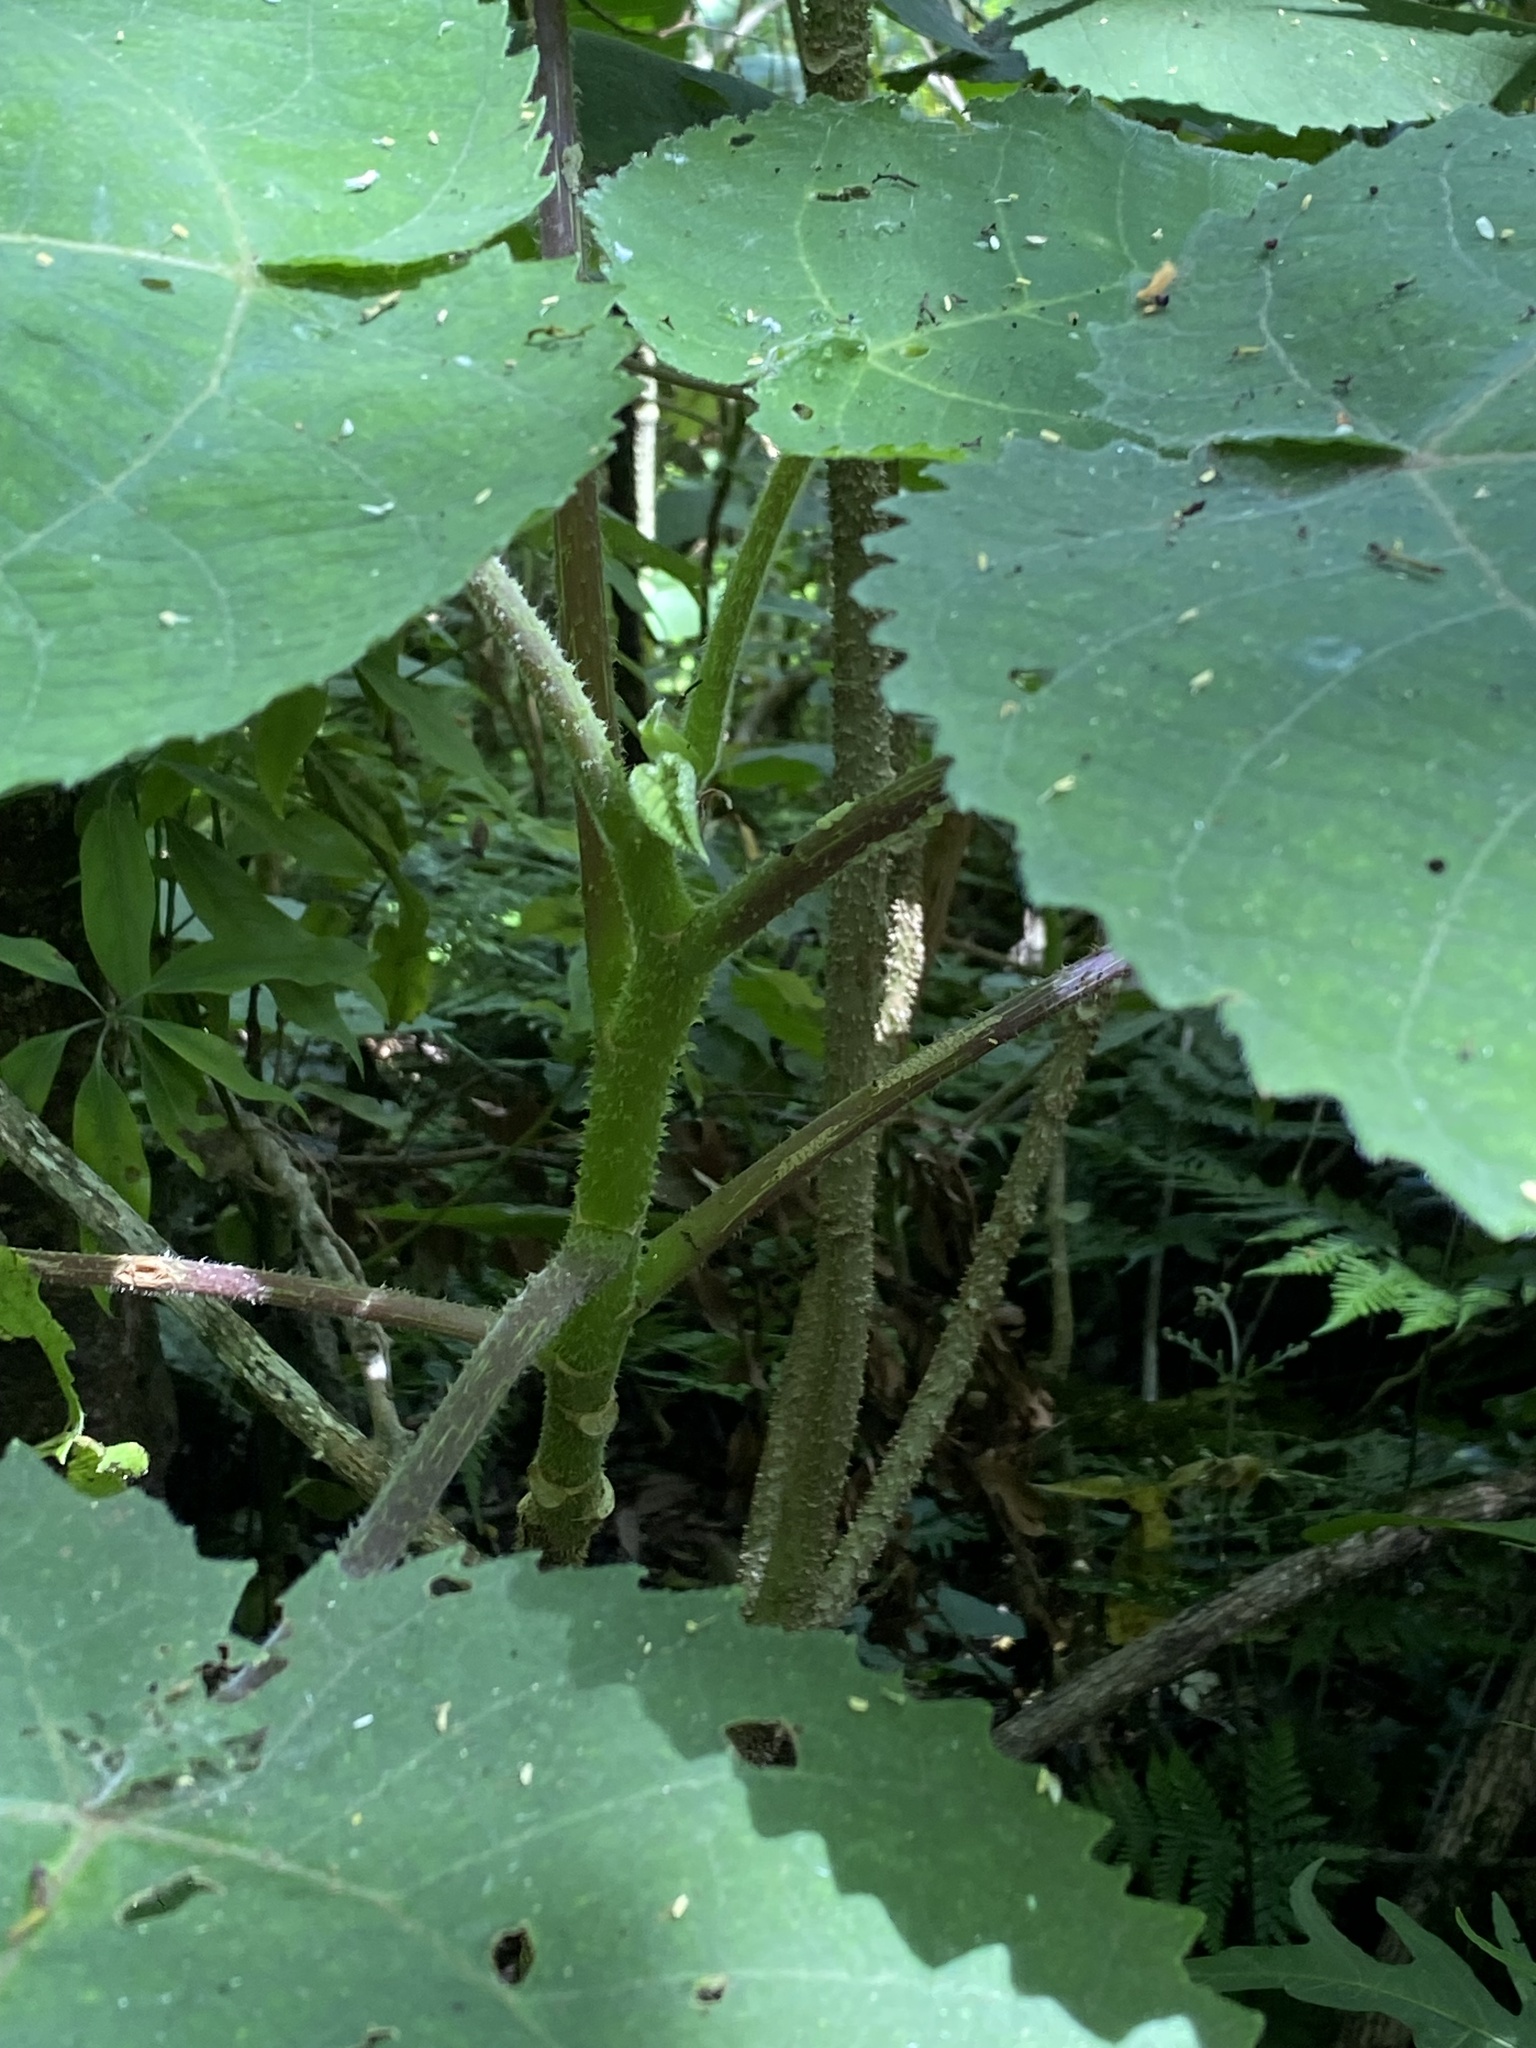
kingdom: Plantae
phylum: Tracheophyta
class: Magnoliopsida
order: Rosales
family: Urticaceae
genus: Dendrocnide
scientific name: Dendrocnide excelsa
